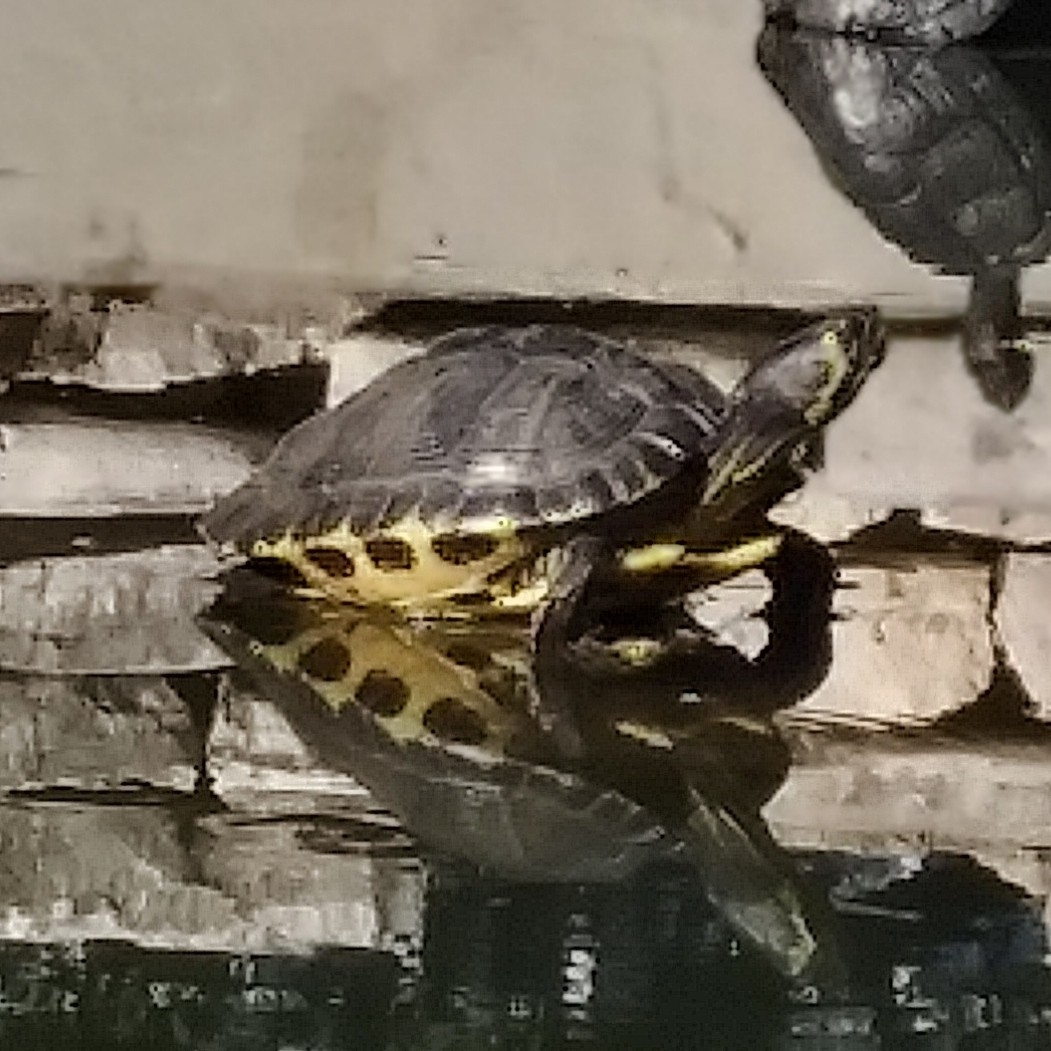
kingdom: Animalia
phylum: Chordata
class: Testudines
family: Emydidae
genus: Trachemys
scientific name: Trachemys scripta
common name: Slider
